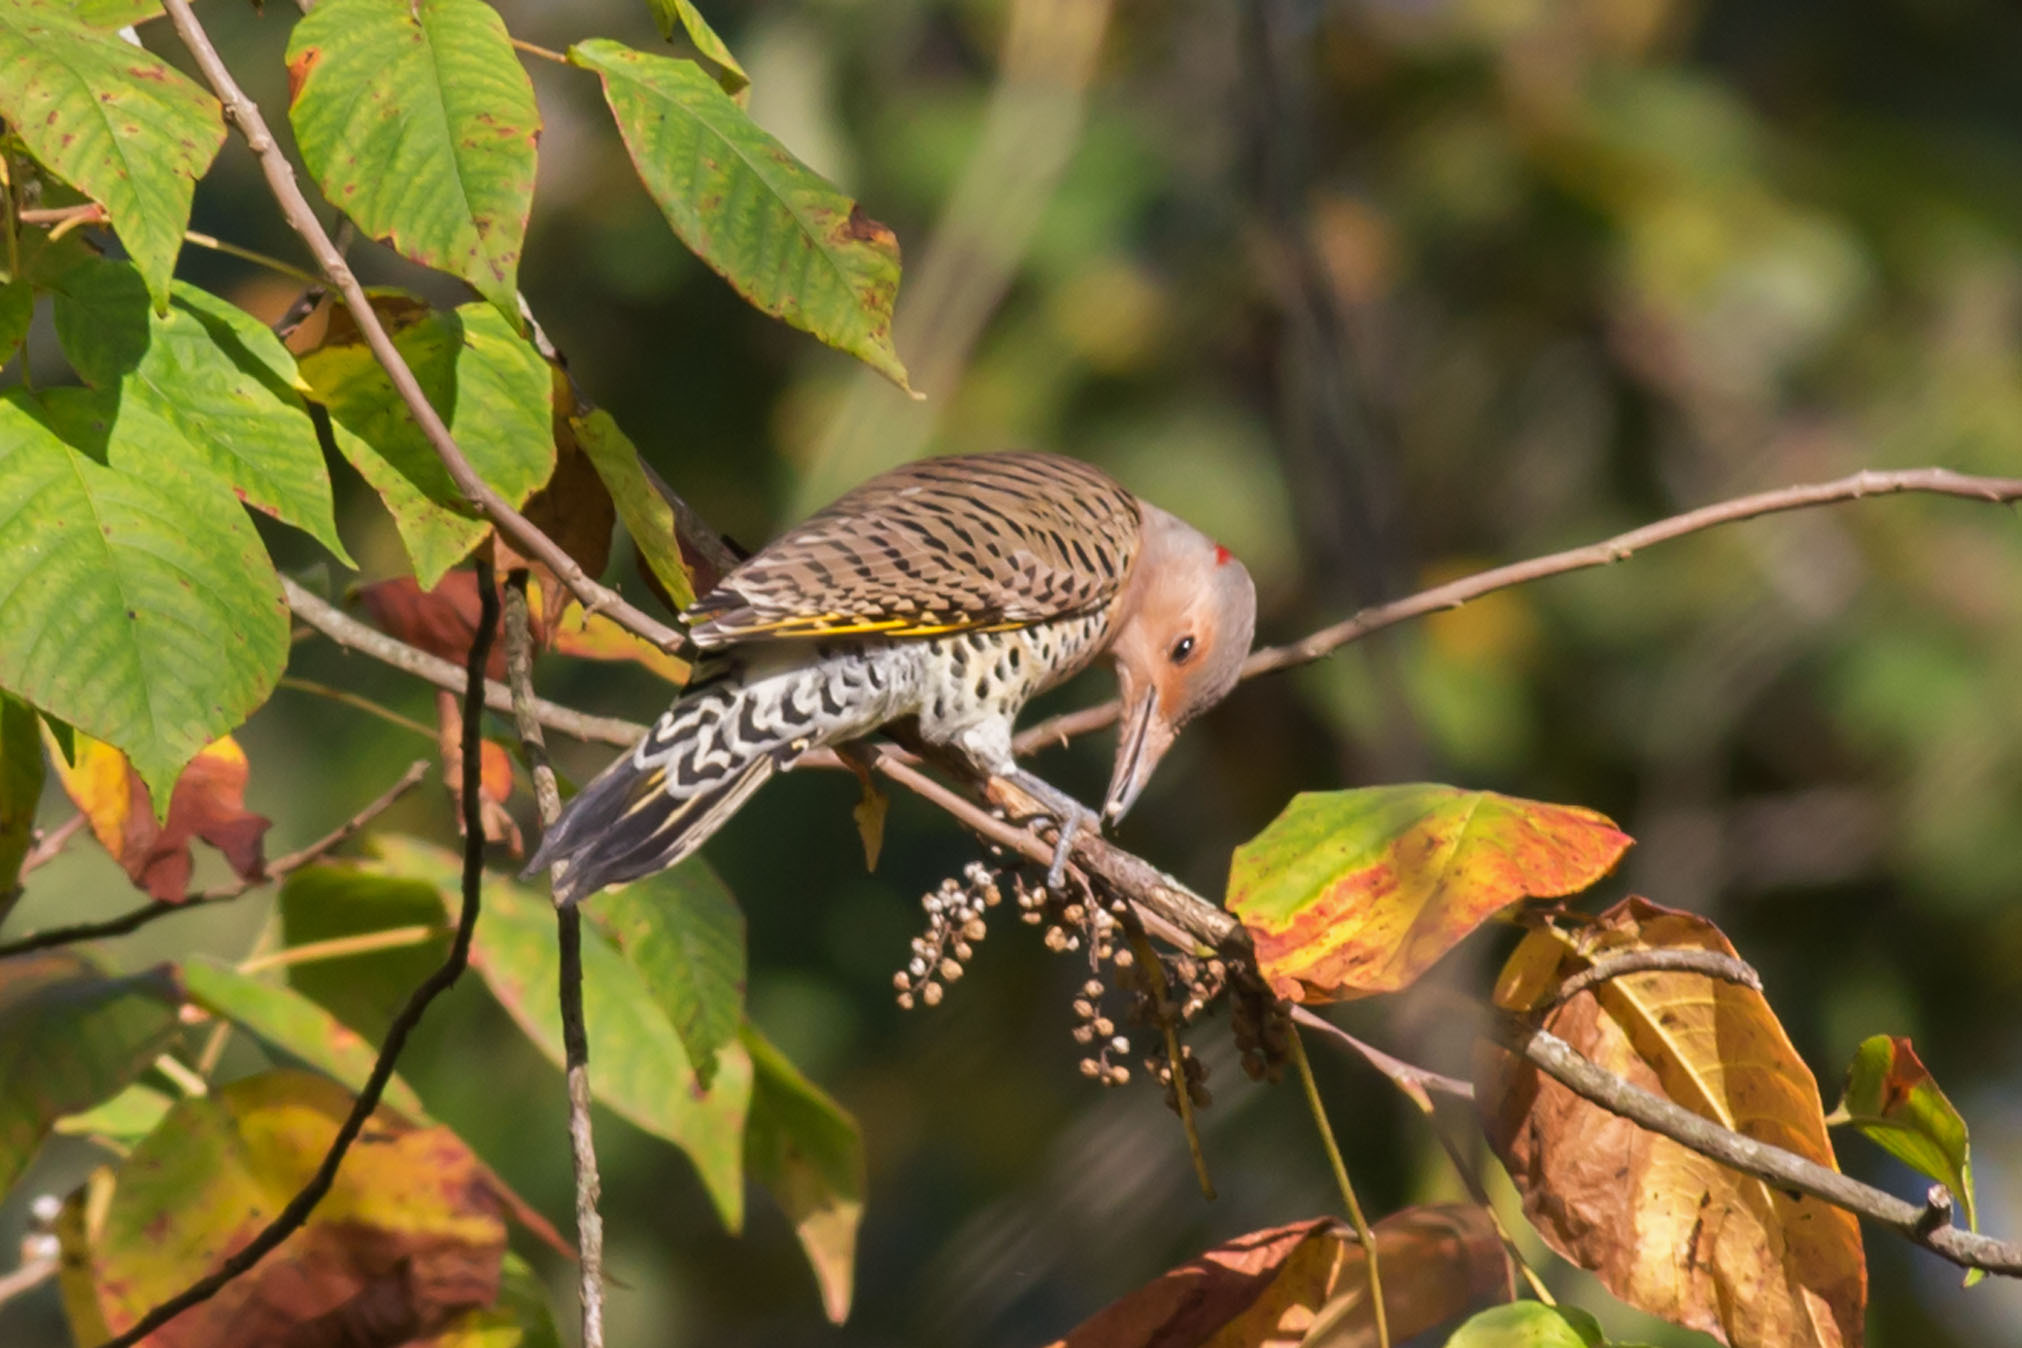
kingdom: Animalia
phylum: Chordata
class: Aves
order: Piciformes
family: Picidae
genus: Colaptes
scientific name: Colaptes auratus
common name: Northern flicker
